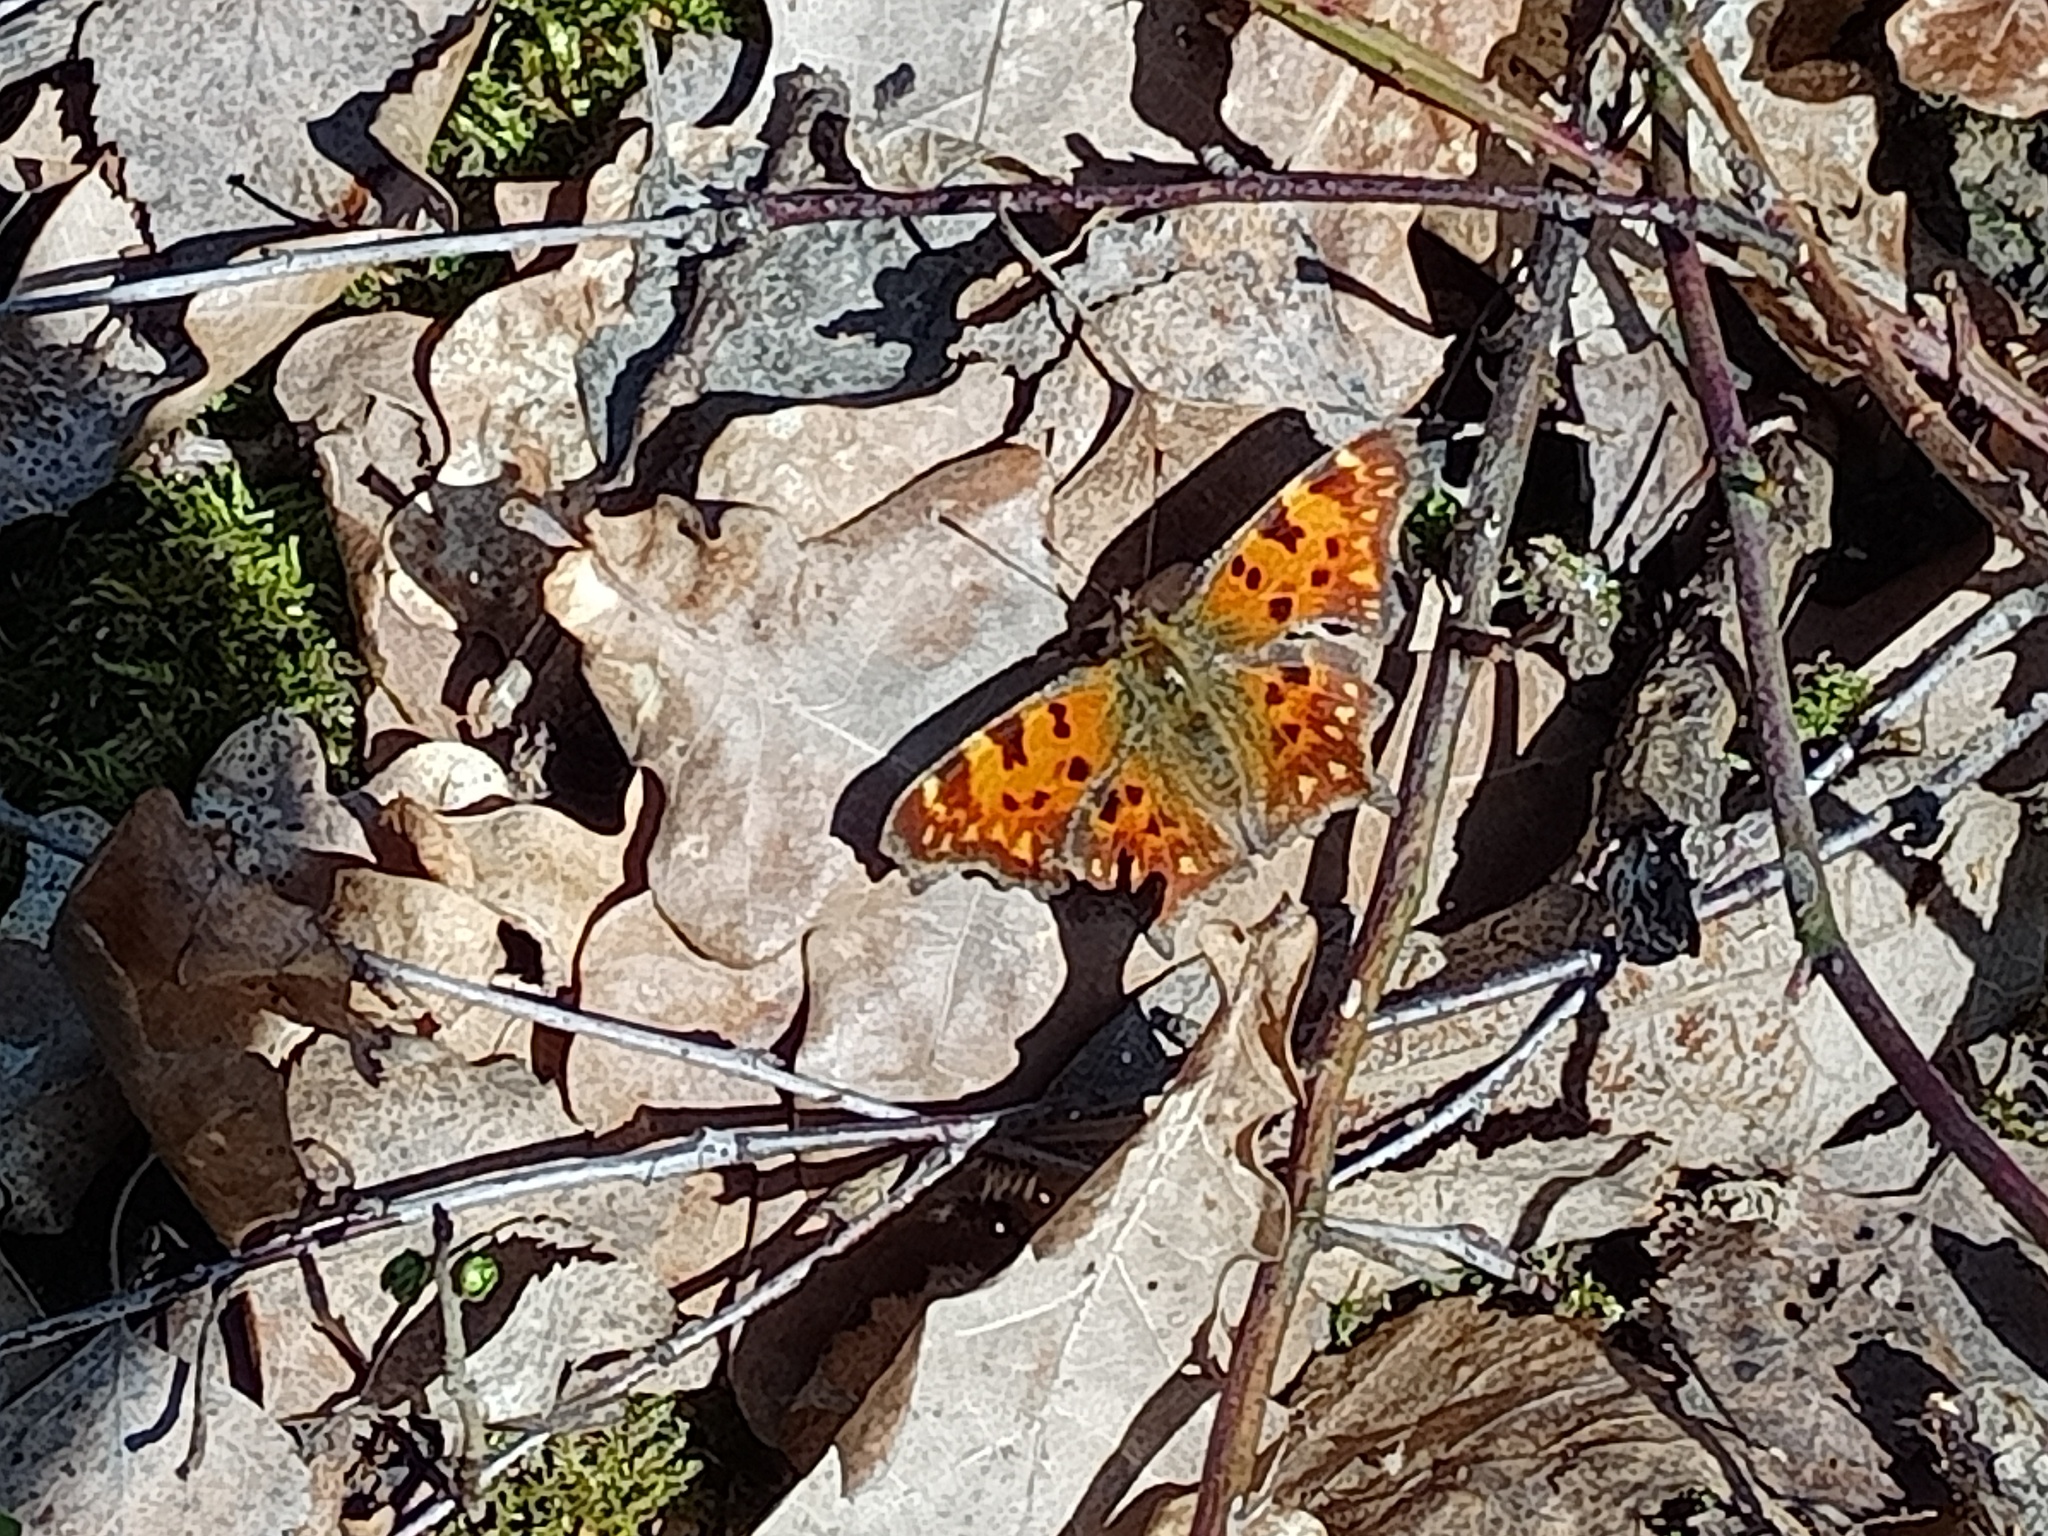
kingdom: Animalia
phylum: Arthropoda
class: Insecta
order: Lepidoptera
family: Nymphalidae
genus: Polygonia
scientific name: Polygonia c-album
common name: Comma
